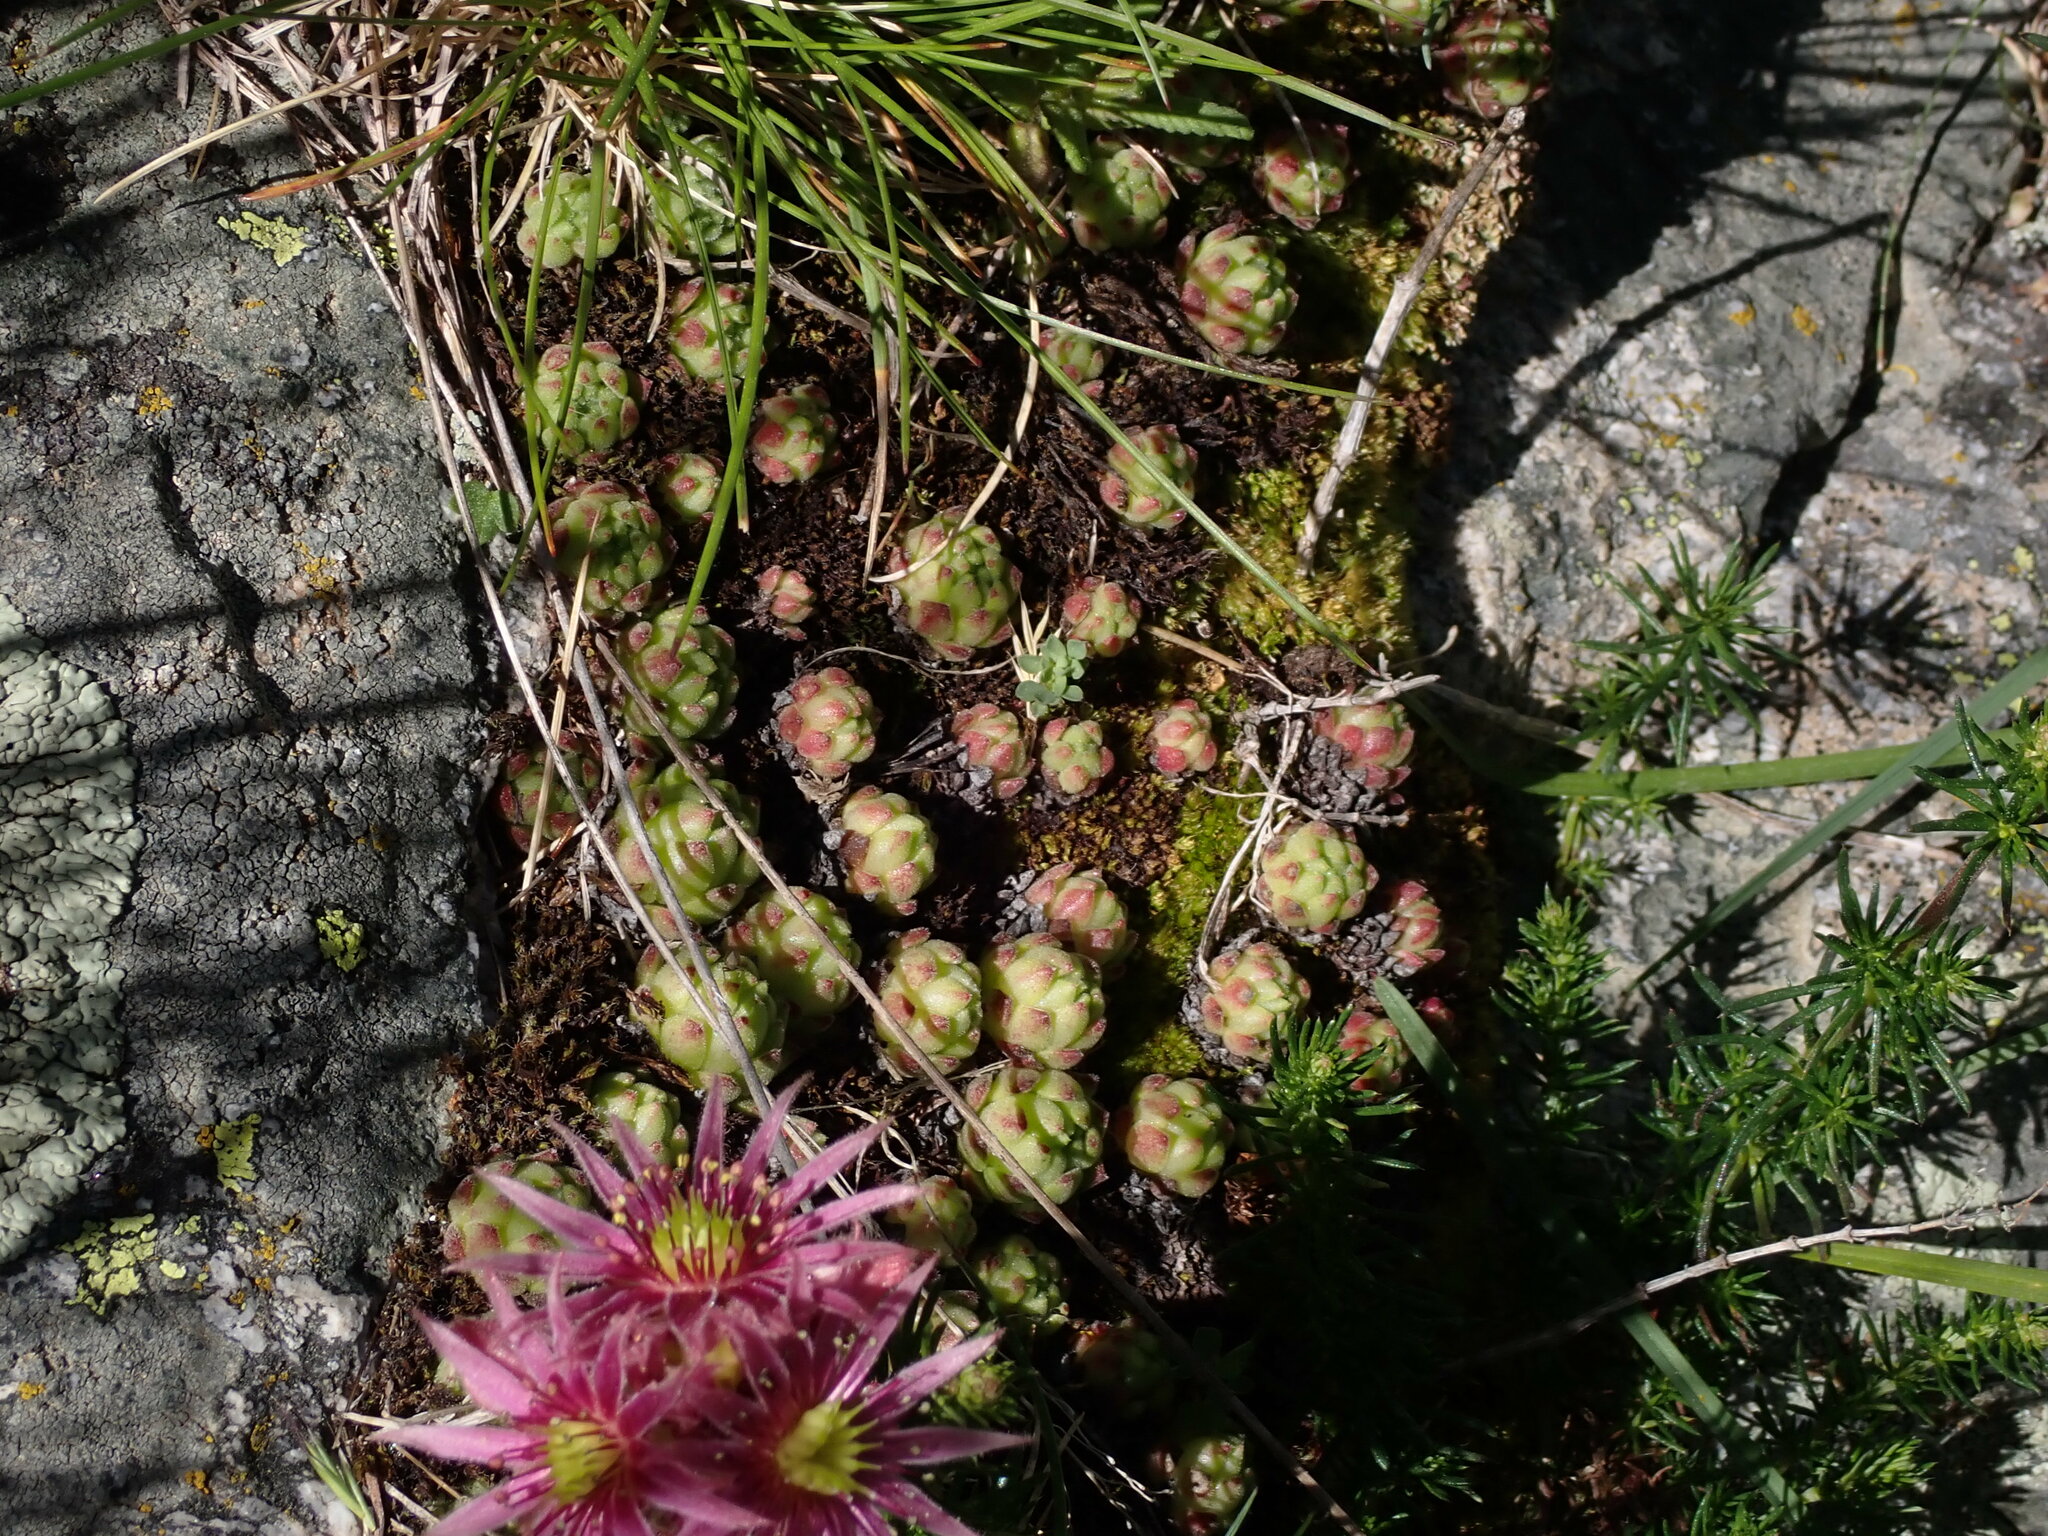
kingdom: Plantae
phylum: Tracheophyta
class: Magnoliopsida
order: Saxifragales
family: Crassulaceae
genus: Sempervivum
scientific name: Sempervivum montanum
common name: Mountain house-leek
